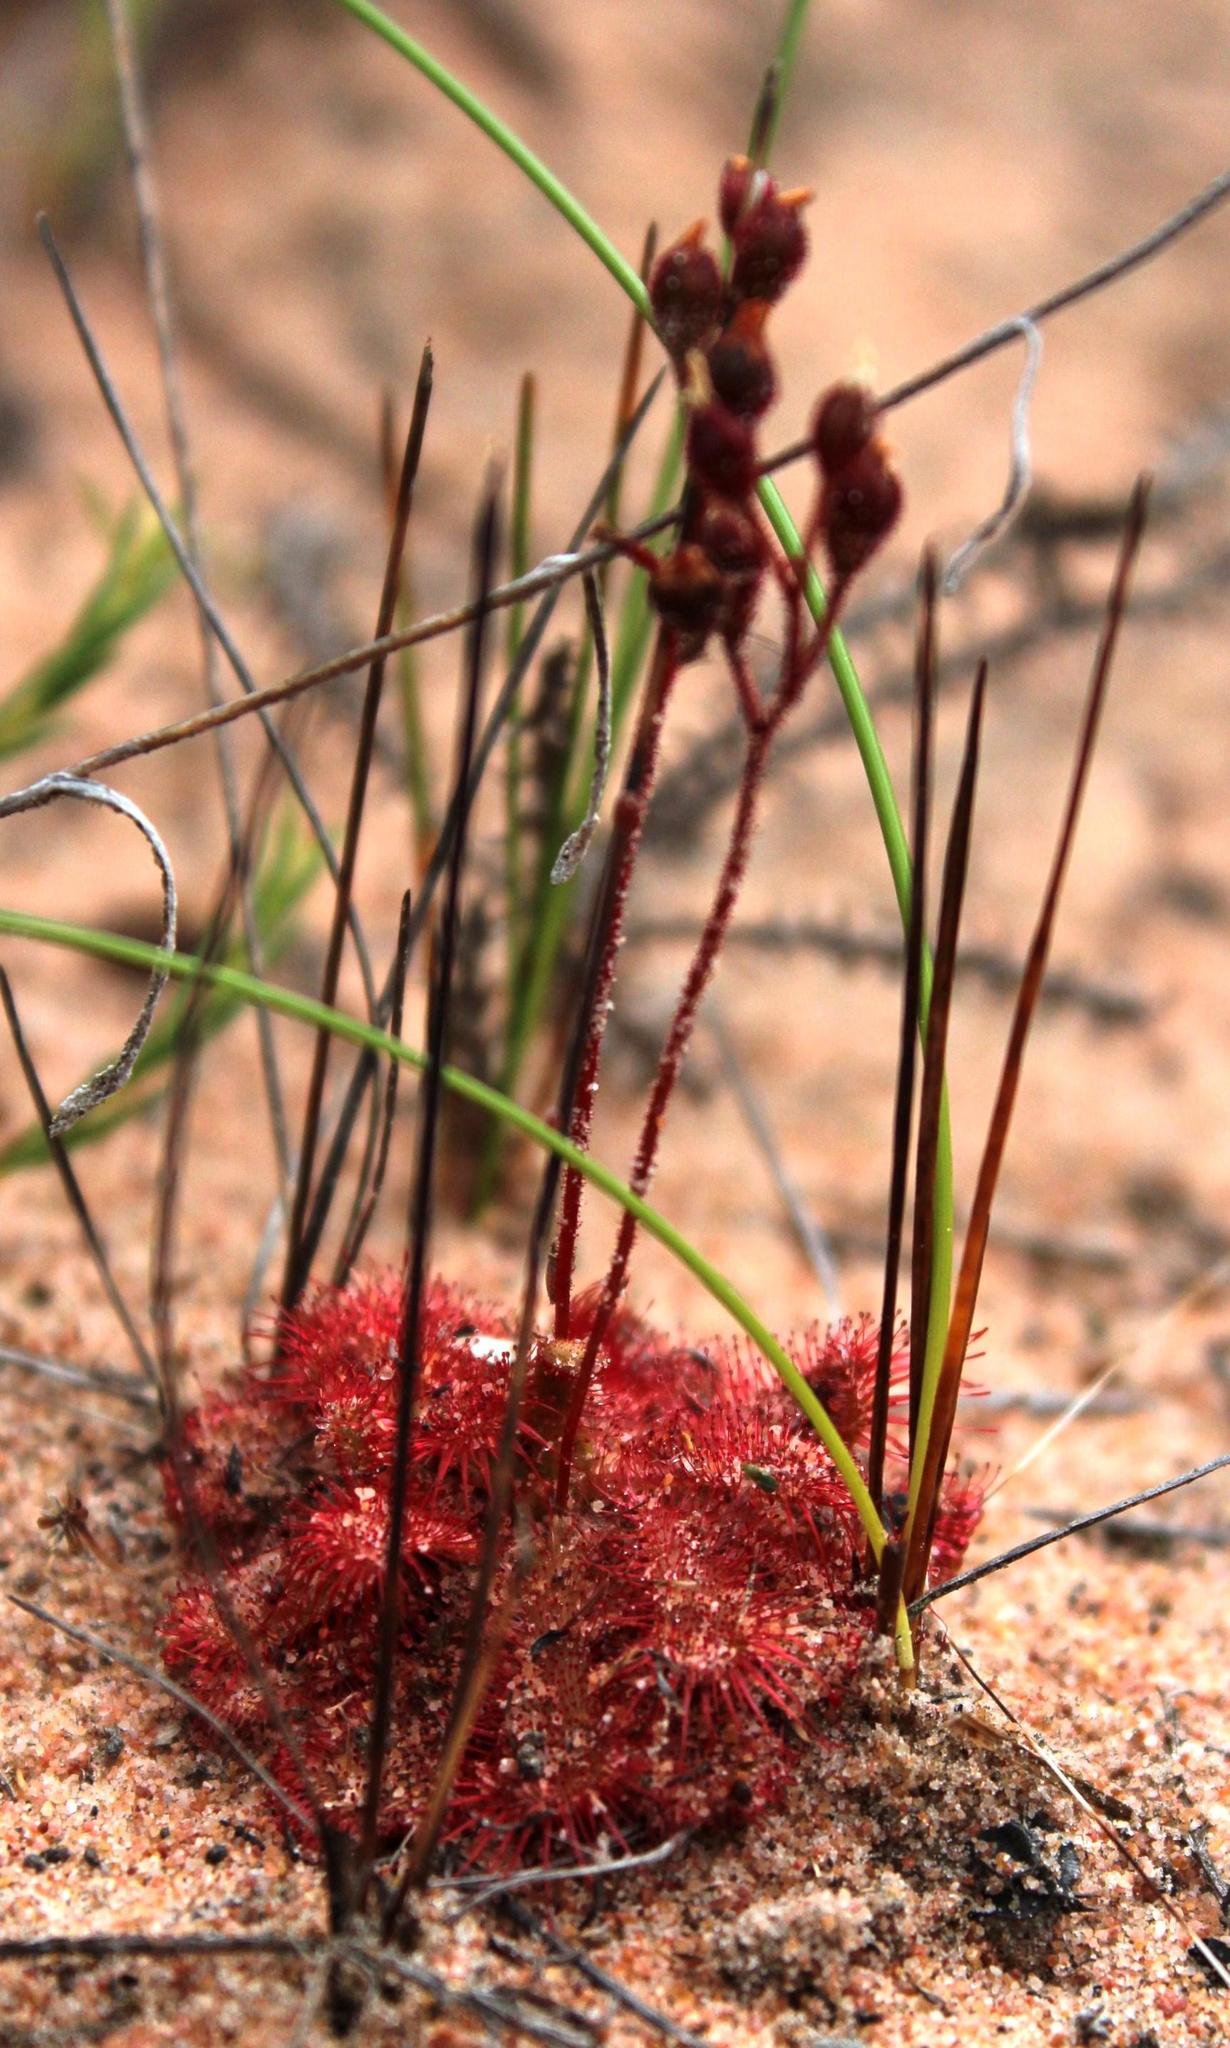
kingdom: Plantae
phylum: Tracheophyta
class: Magnoliopsida
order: Caryophyllales
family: Droseraceae
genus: Drosera
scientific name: Drosera trinervia
